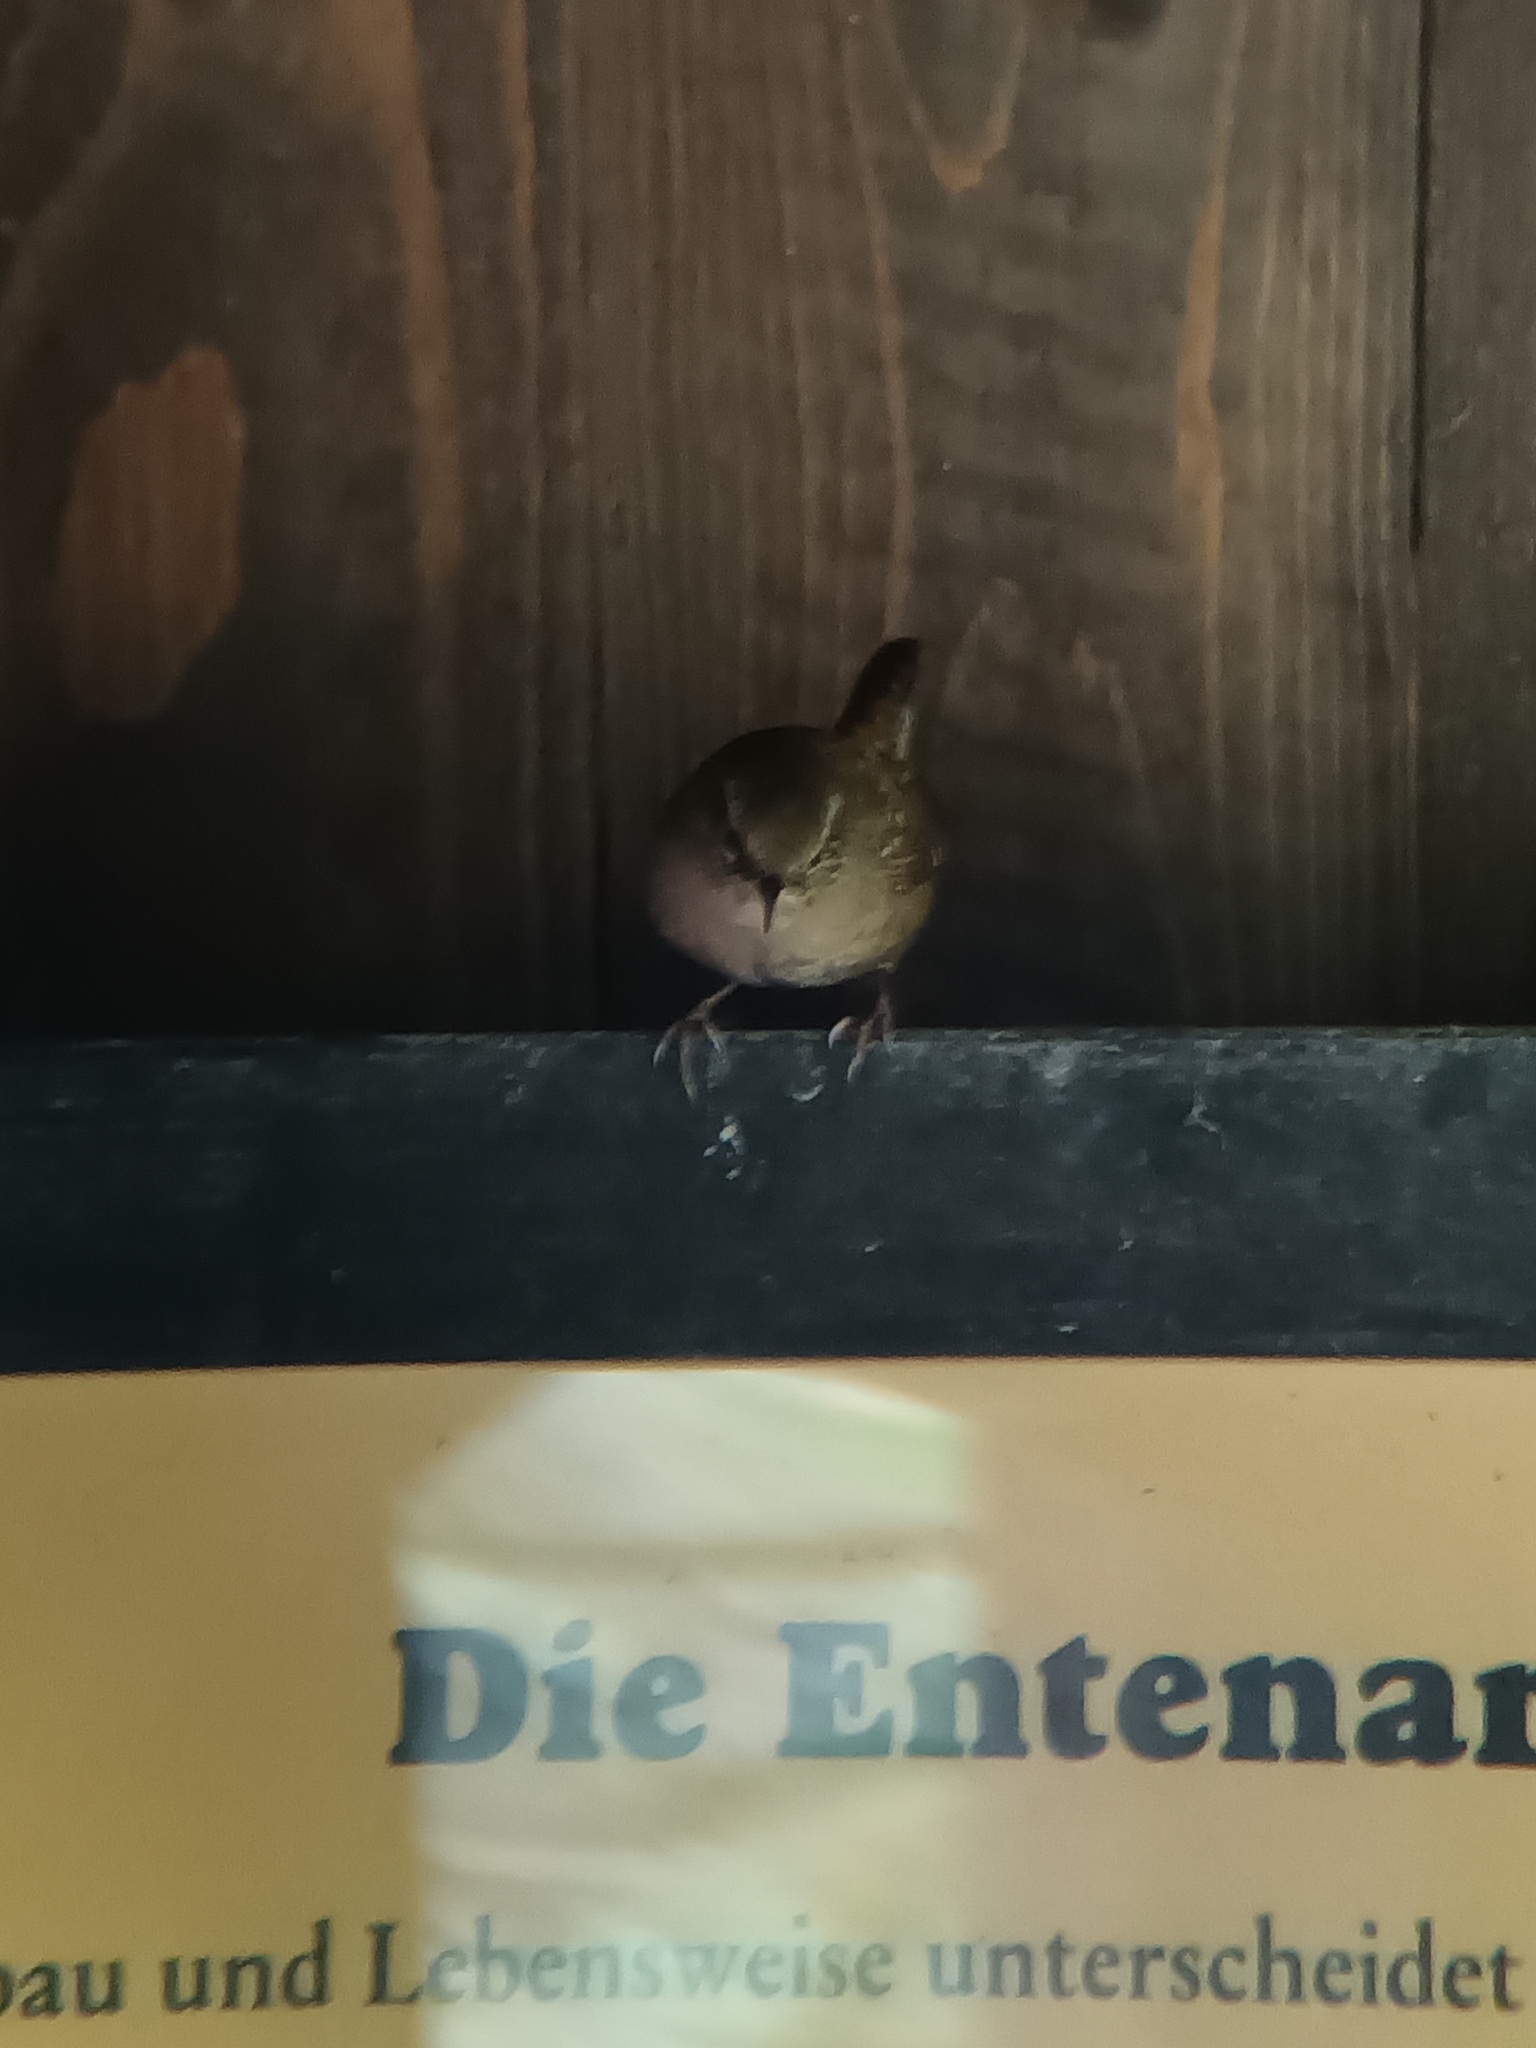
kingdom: Animalia
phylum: Chordata
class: Aves
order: Passeriformes
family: Troglodytidae
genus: Troglodytes
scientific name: Troglodytes troglodytes
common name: Eurasian wren
